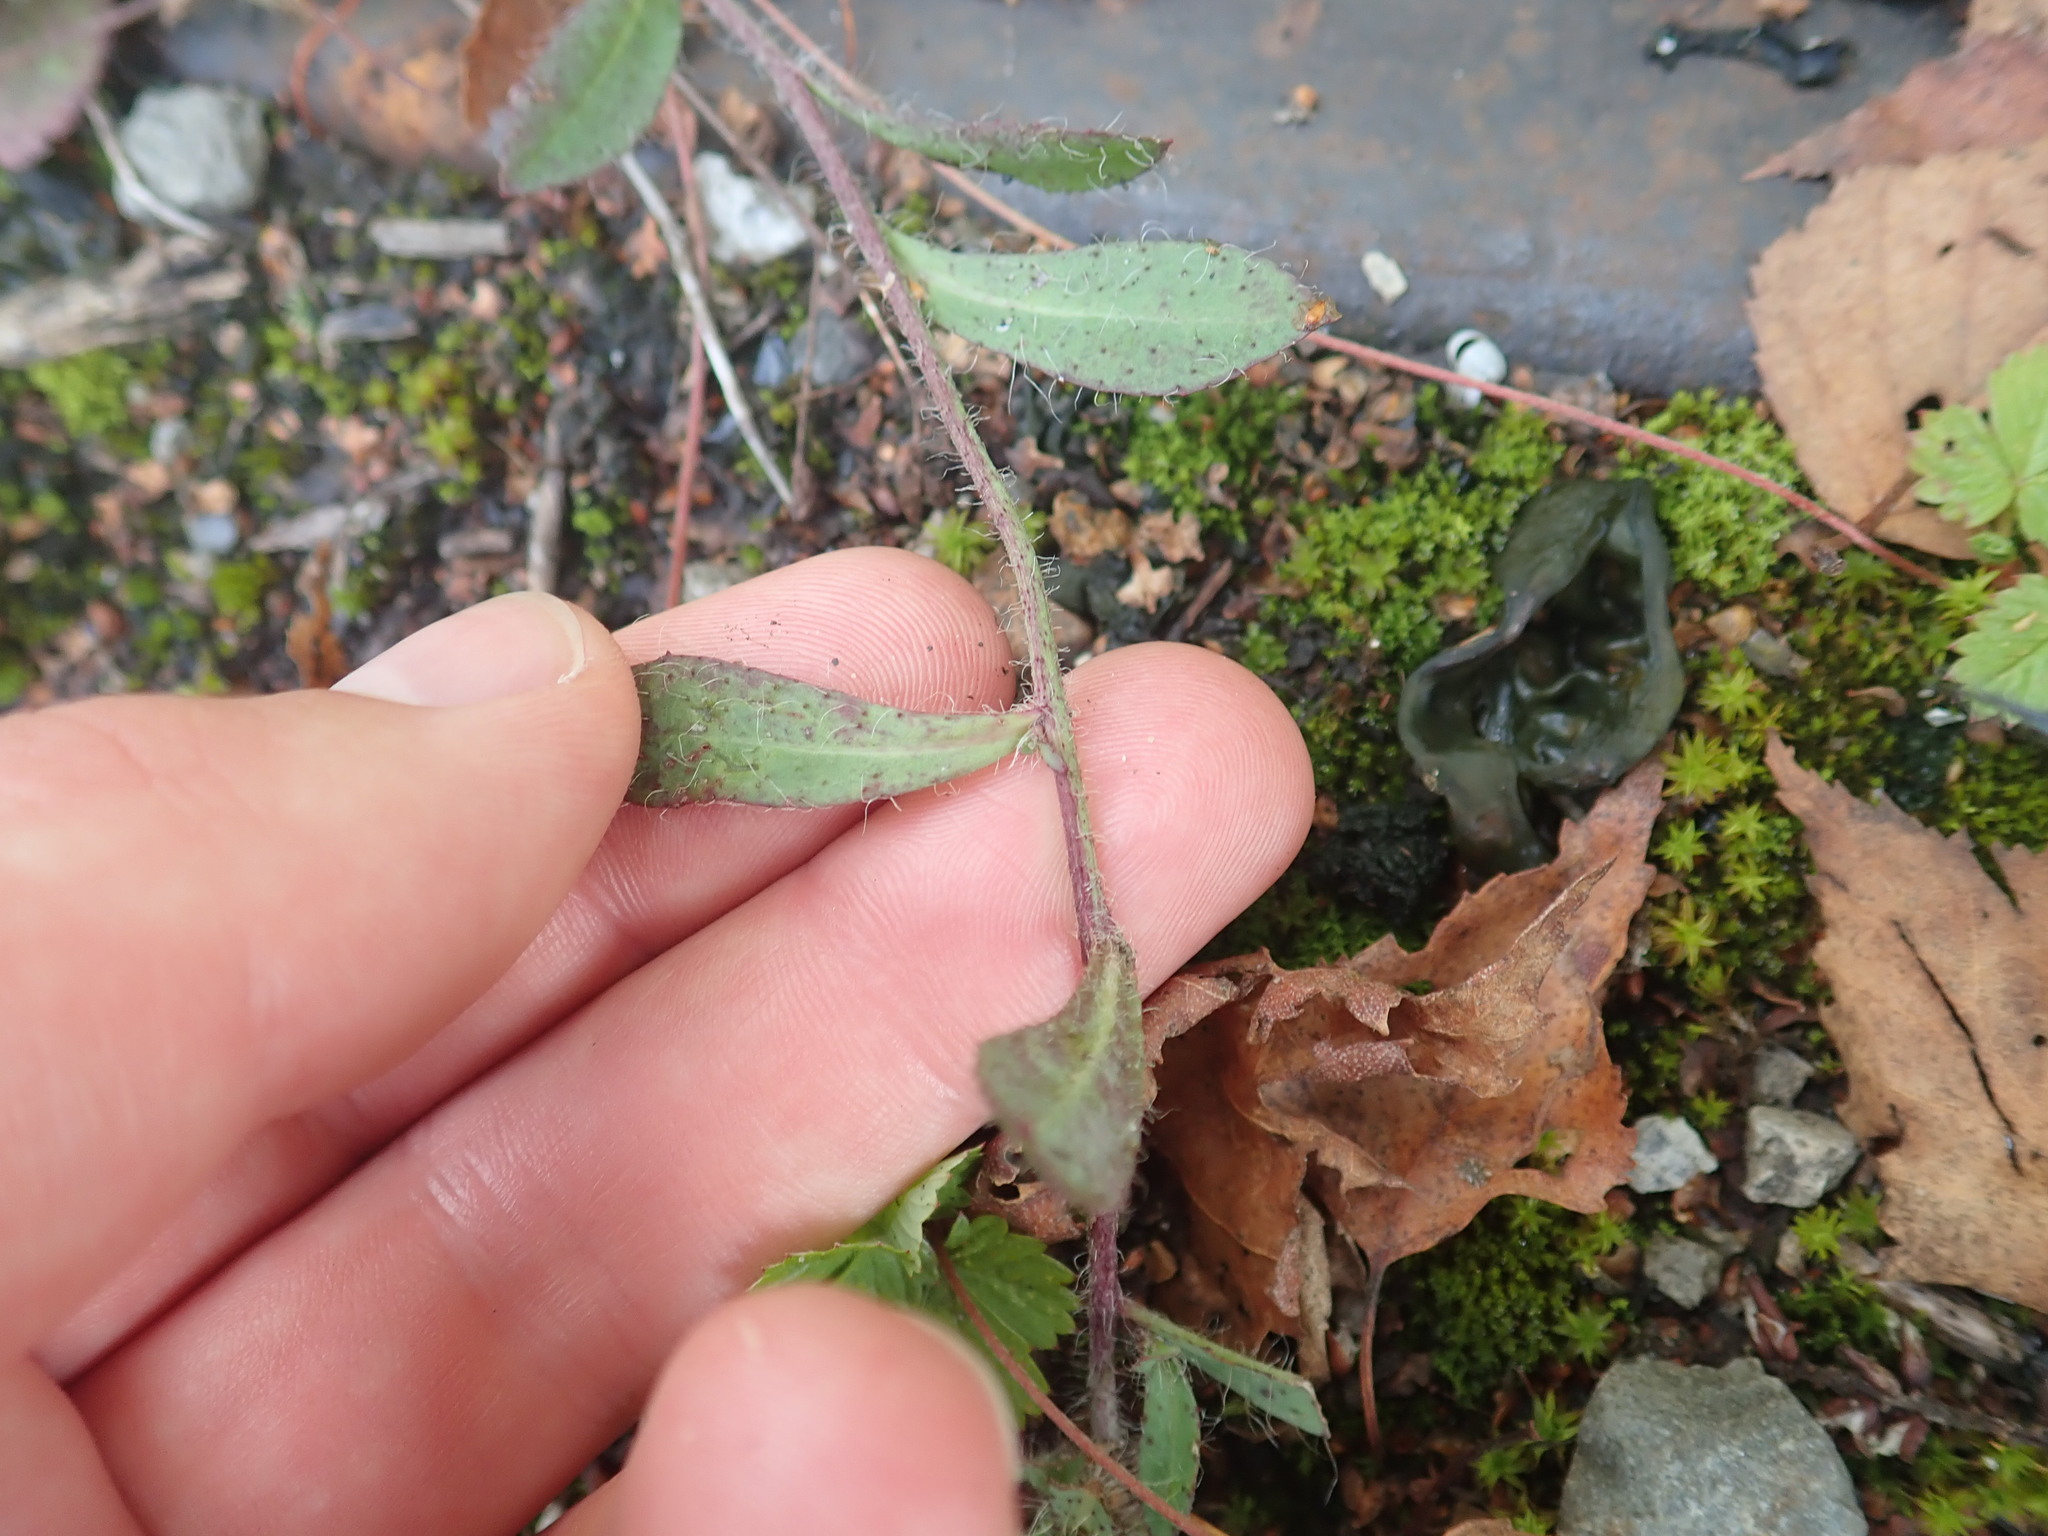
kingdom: Plantae
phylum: Tracheophyta
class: Magnoliopsida
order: Asterales
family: Asteraceae
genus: Pilosella
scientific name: Pilosella bauhini
